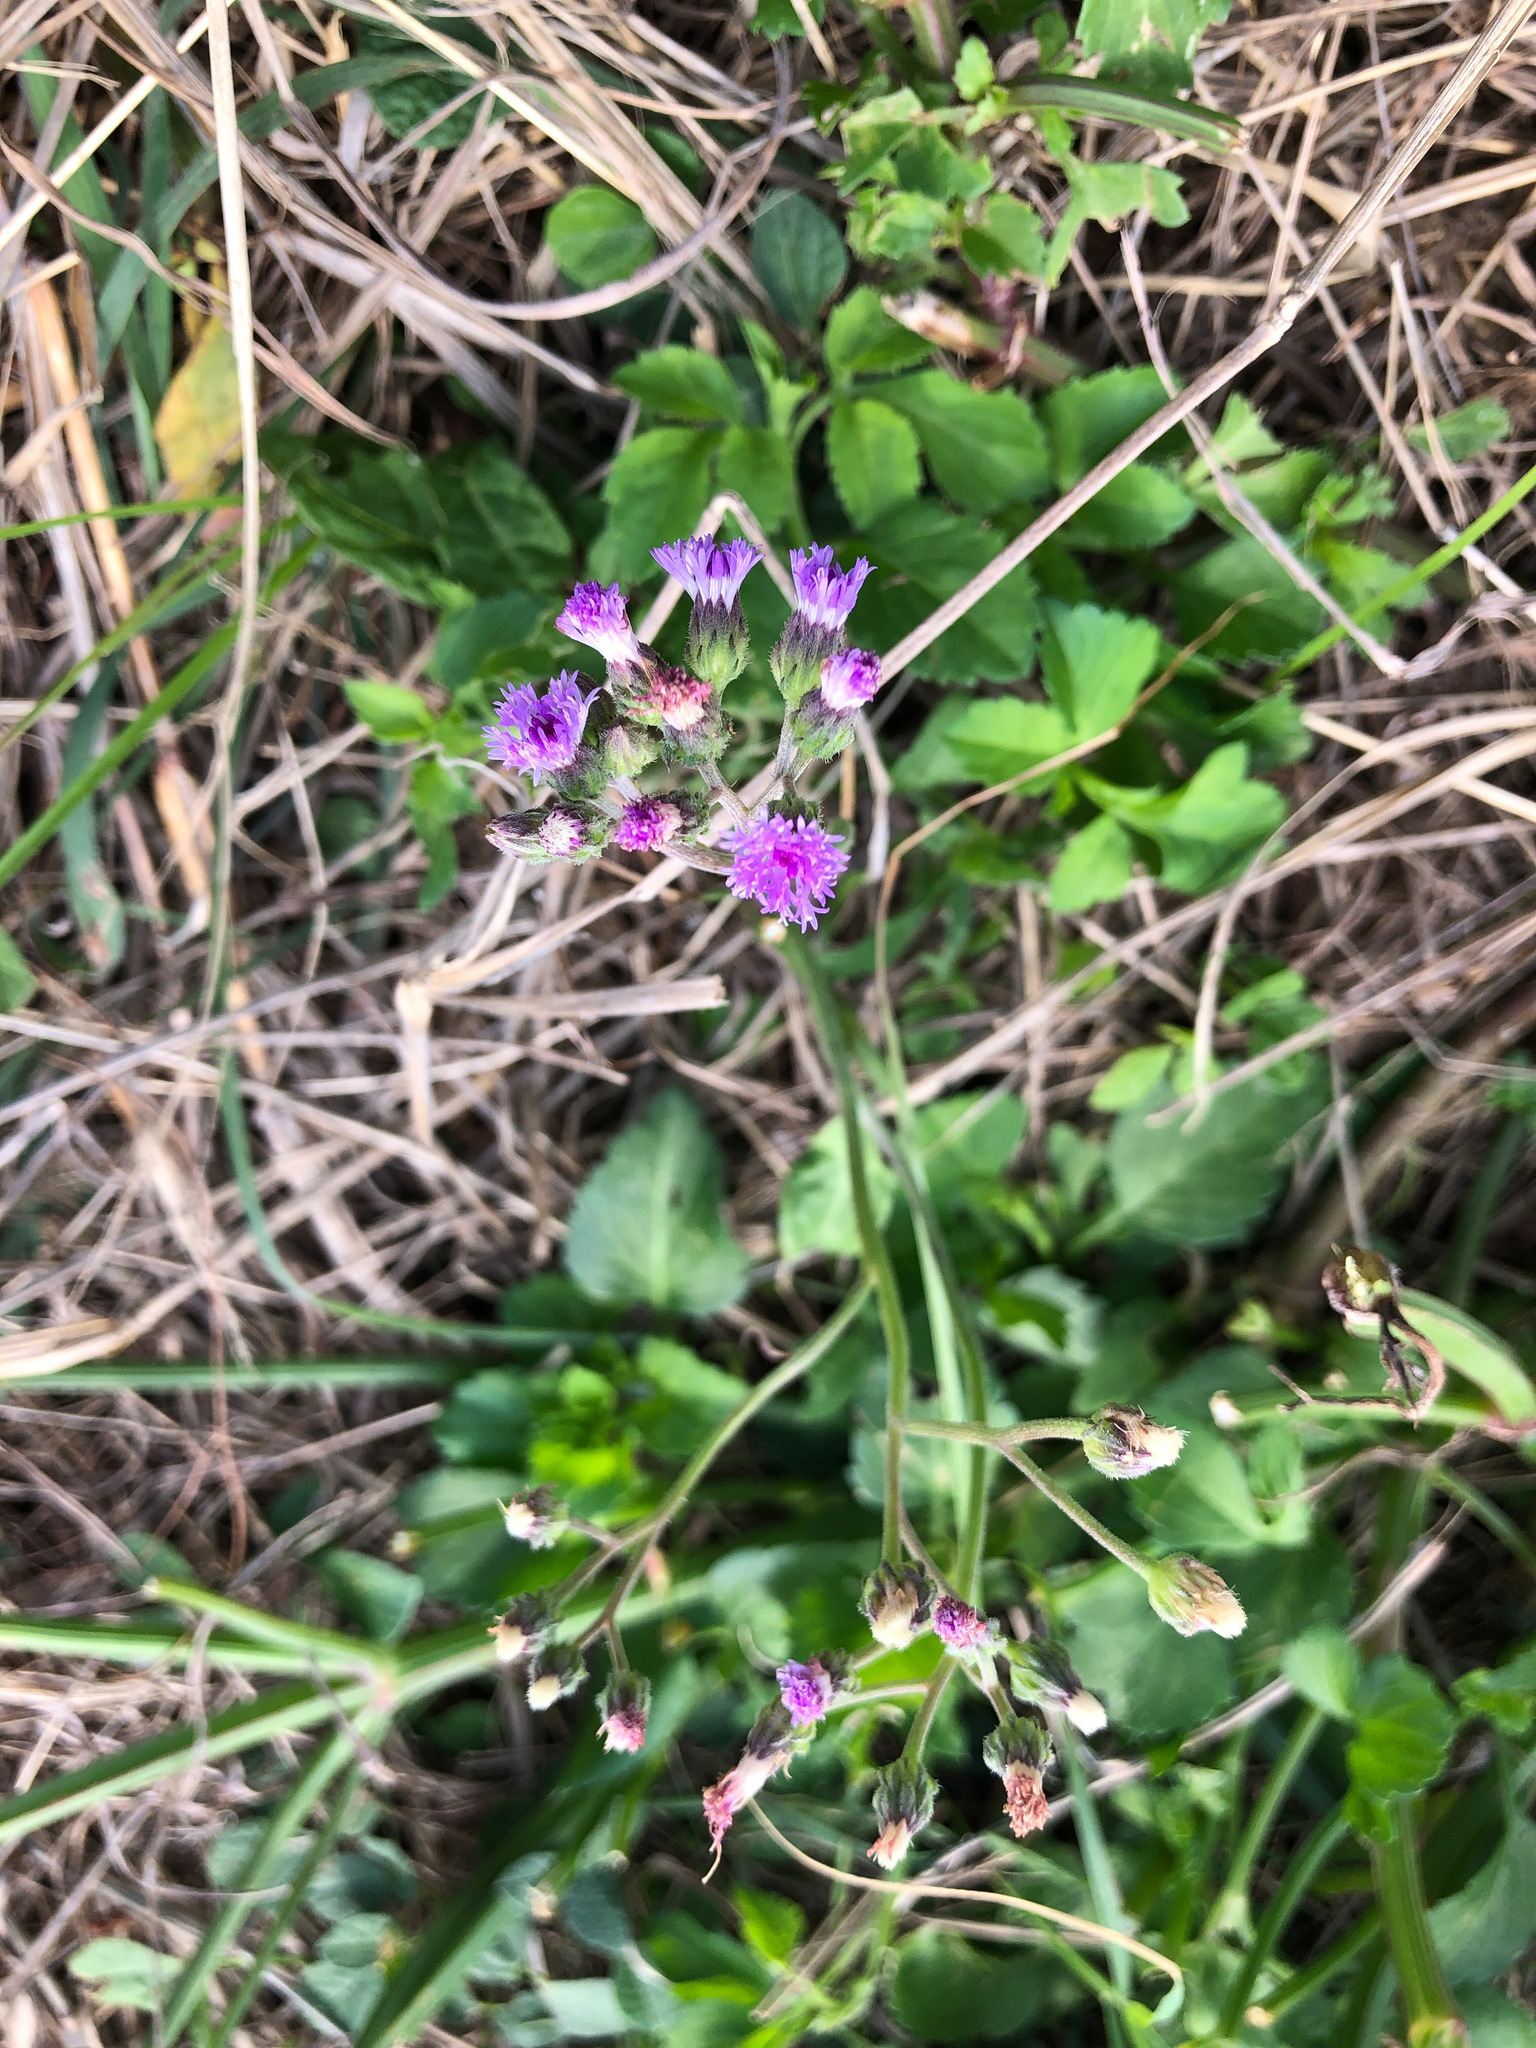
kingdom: Plantae
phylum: Tracheophyta
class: Magnoliopsida
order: Asterales
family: Asteraceae
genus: Cyanthillium
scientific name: Cyanthillium cinereum
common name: Little ironweed
